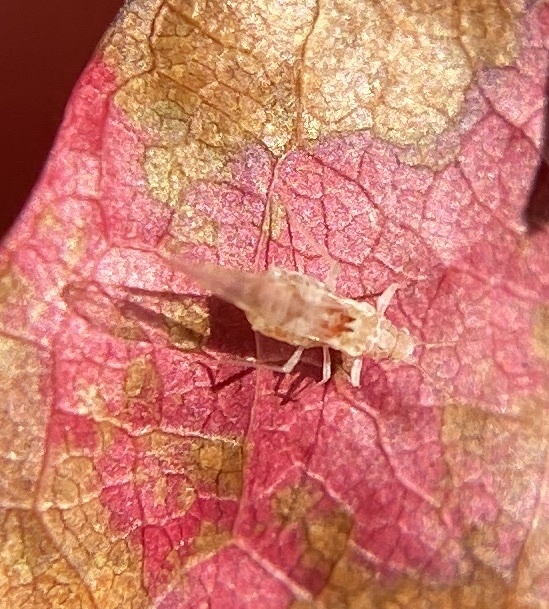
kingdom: Animalia
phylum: Arthropoda
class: Insecta
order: Hemiptera
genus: Neomyzocallis
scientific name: Neomyzocallis
